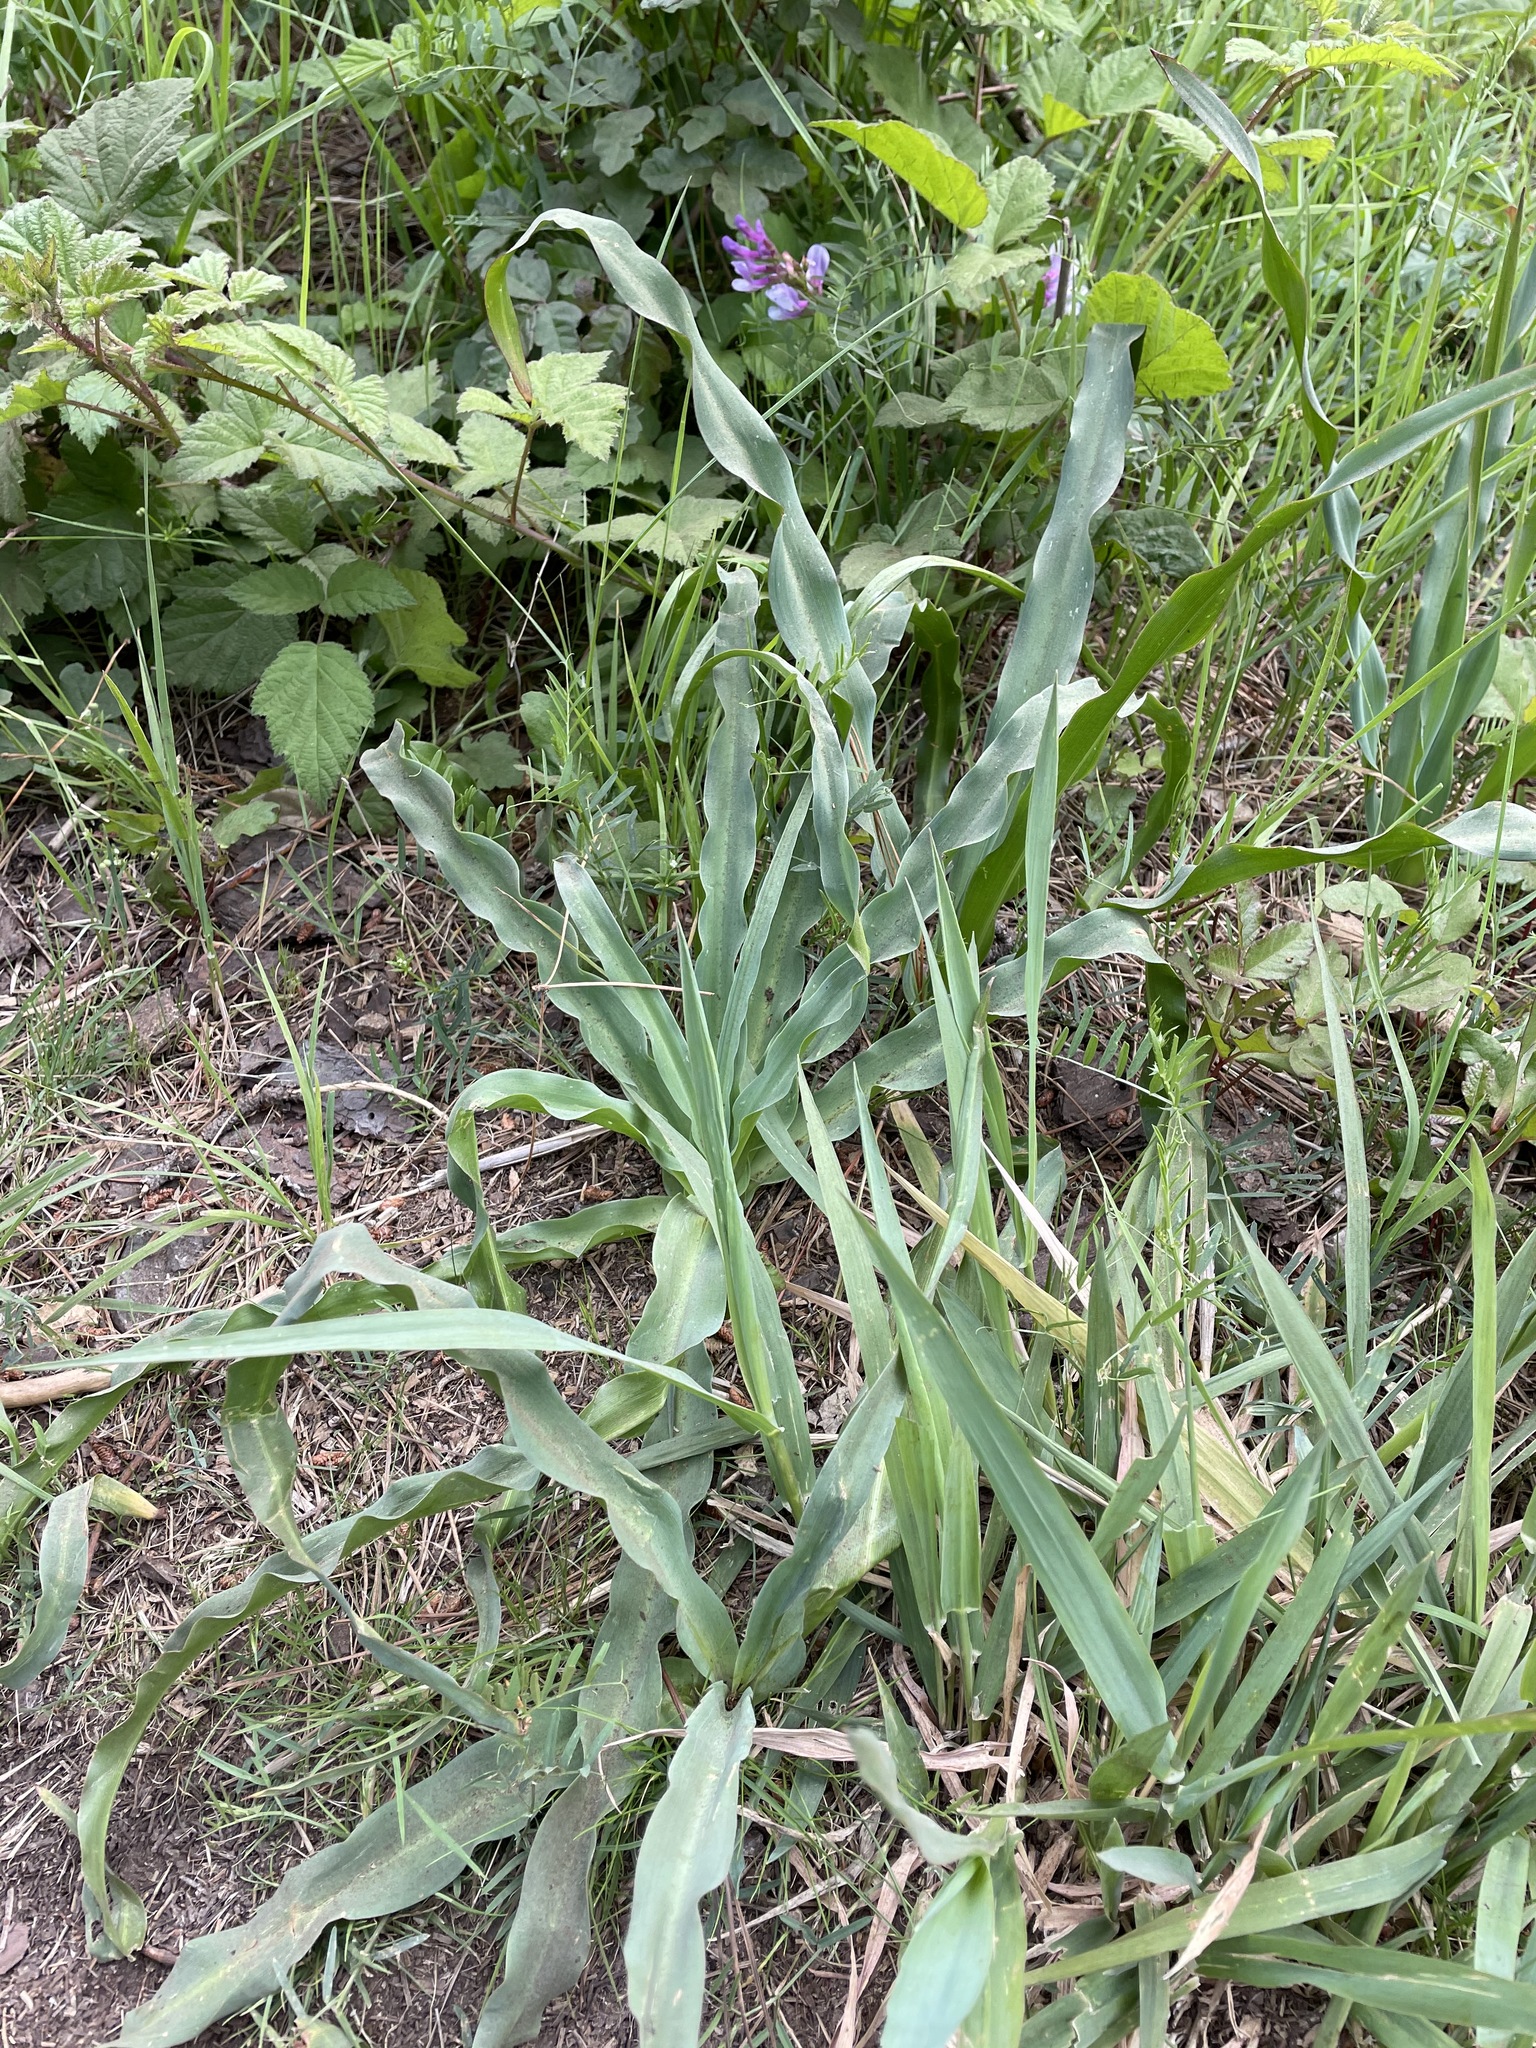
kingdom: Plantae
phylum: Tracheophyta
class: Liliopsida
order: Asparagales
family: Asparagaceae
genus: Chlorogalum
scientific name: Chlorogalum pomeridianum
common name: Amole
